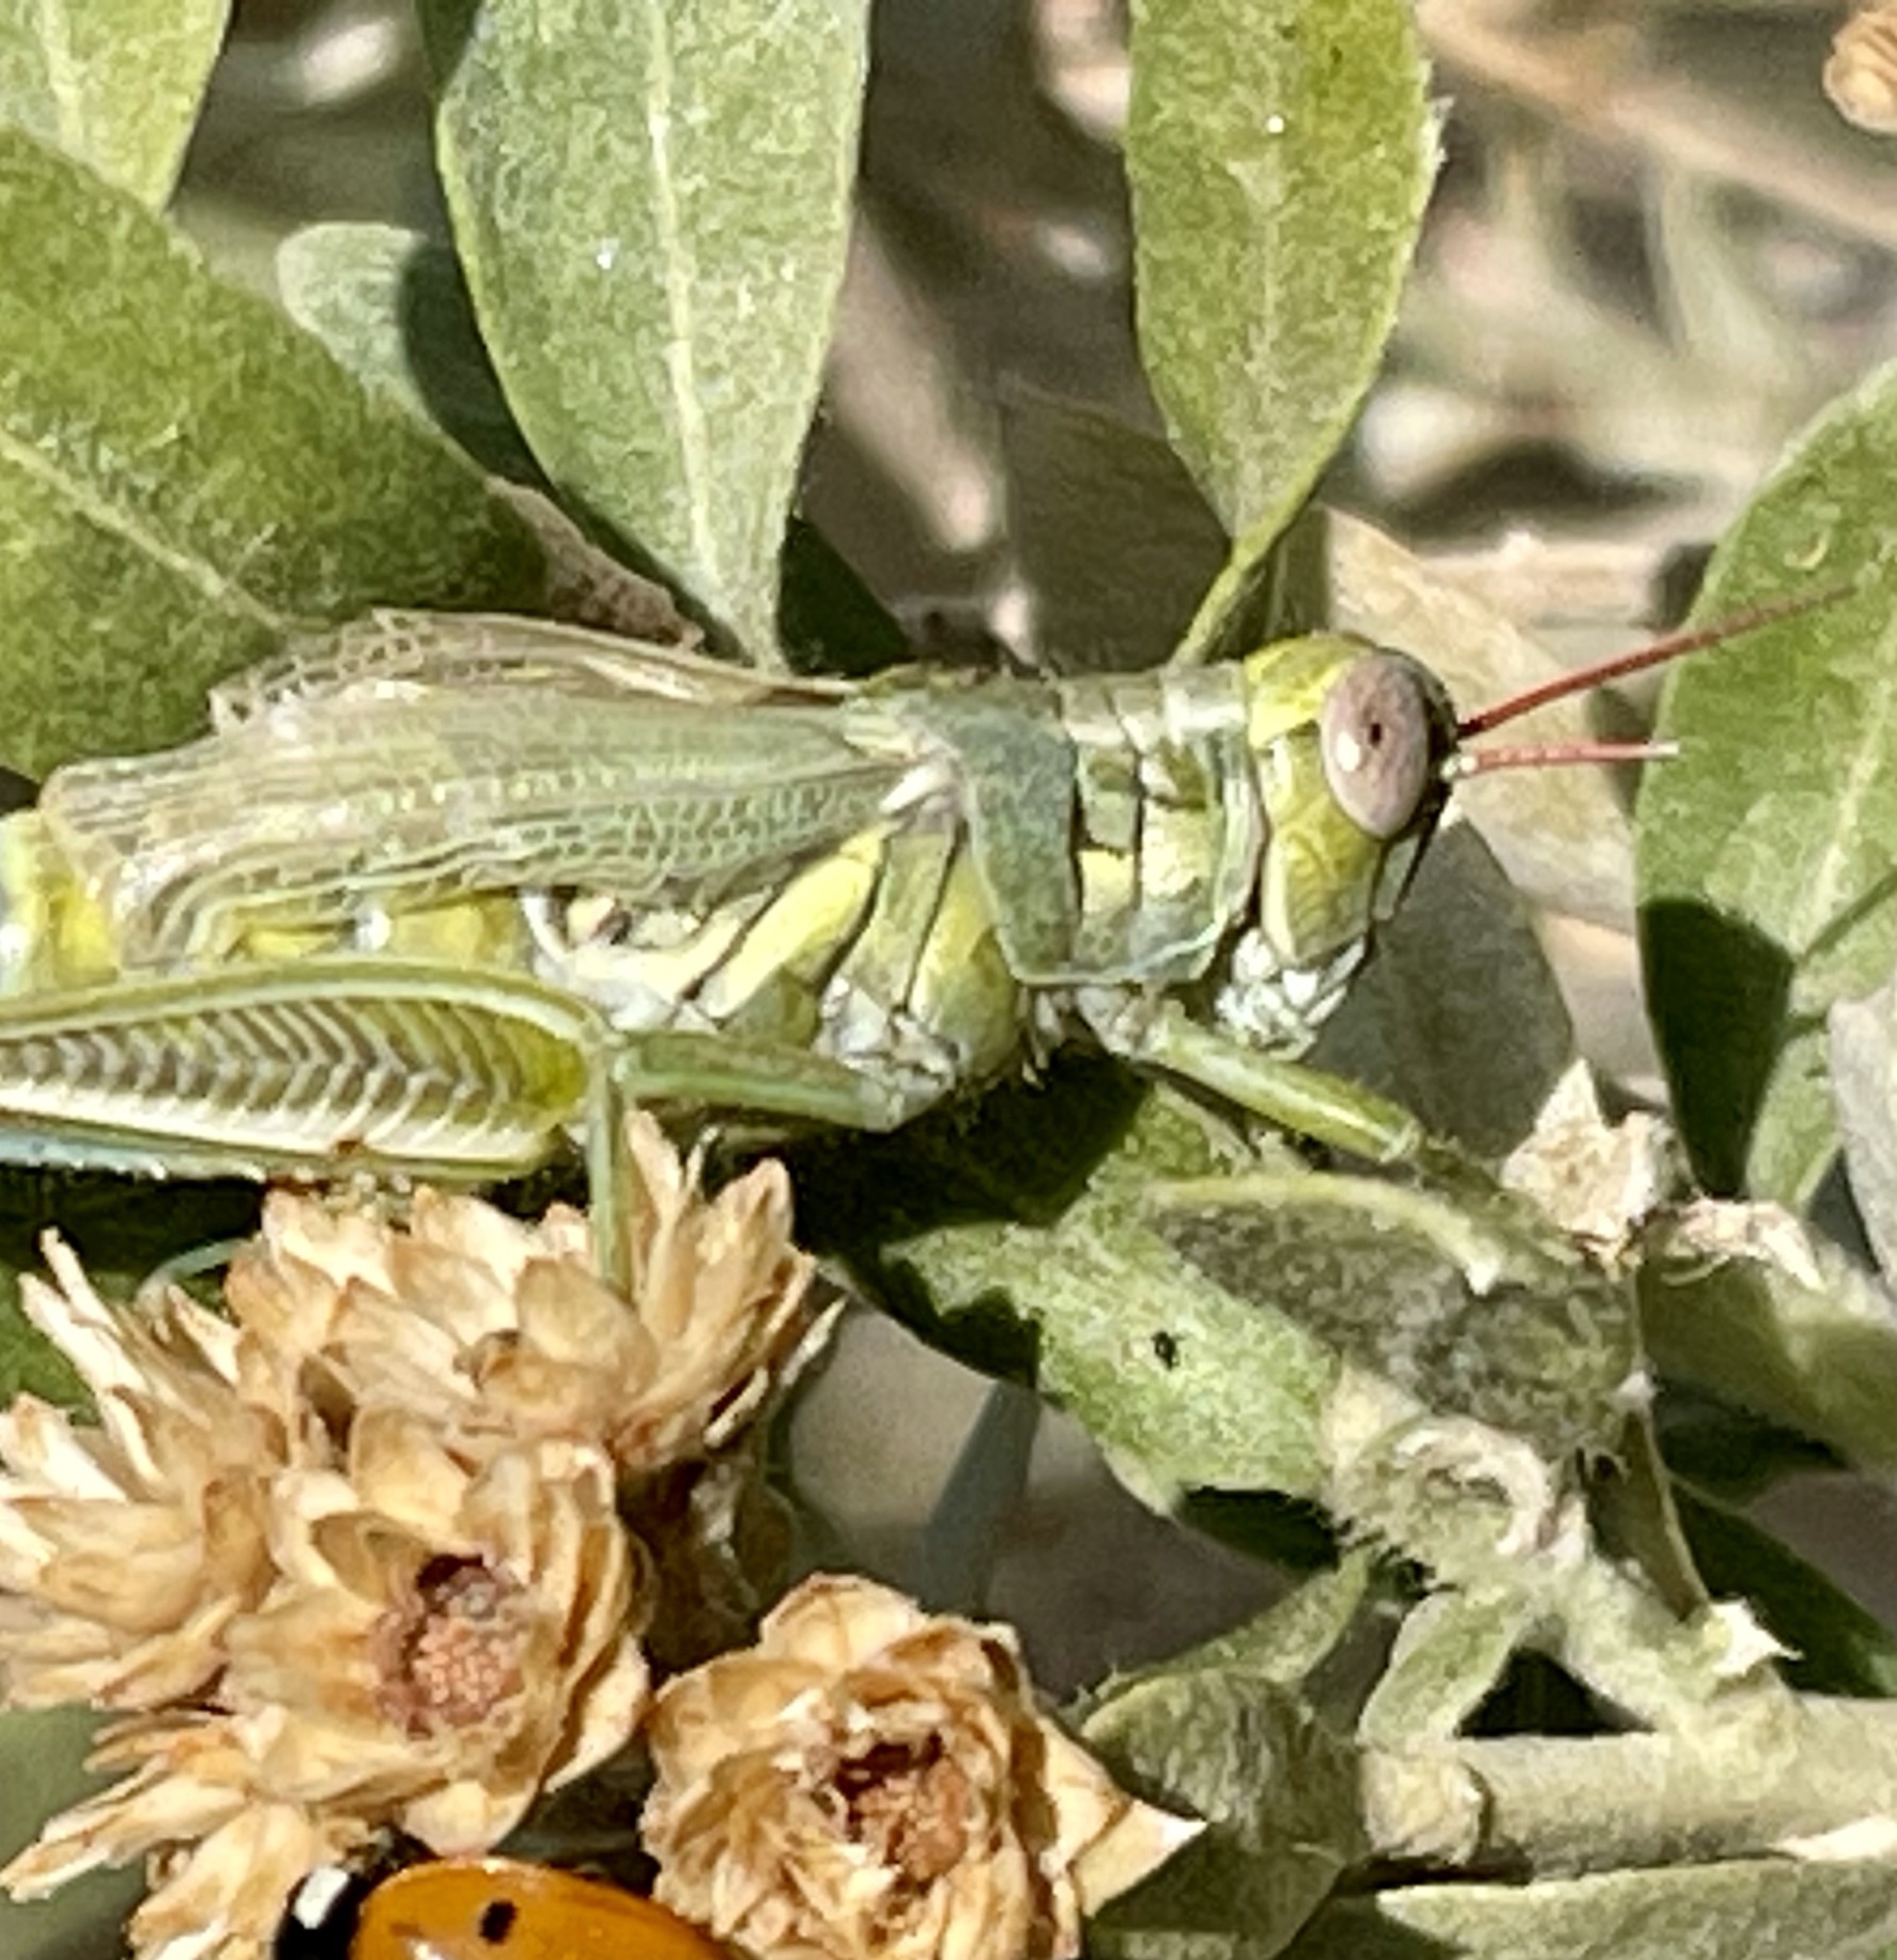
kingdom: Animalia
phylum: Arthropoda
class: Insecta
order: Orthoptera
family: Acrididae
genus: Melanoplus
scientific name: Melanoplus herbaceus
